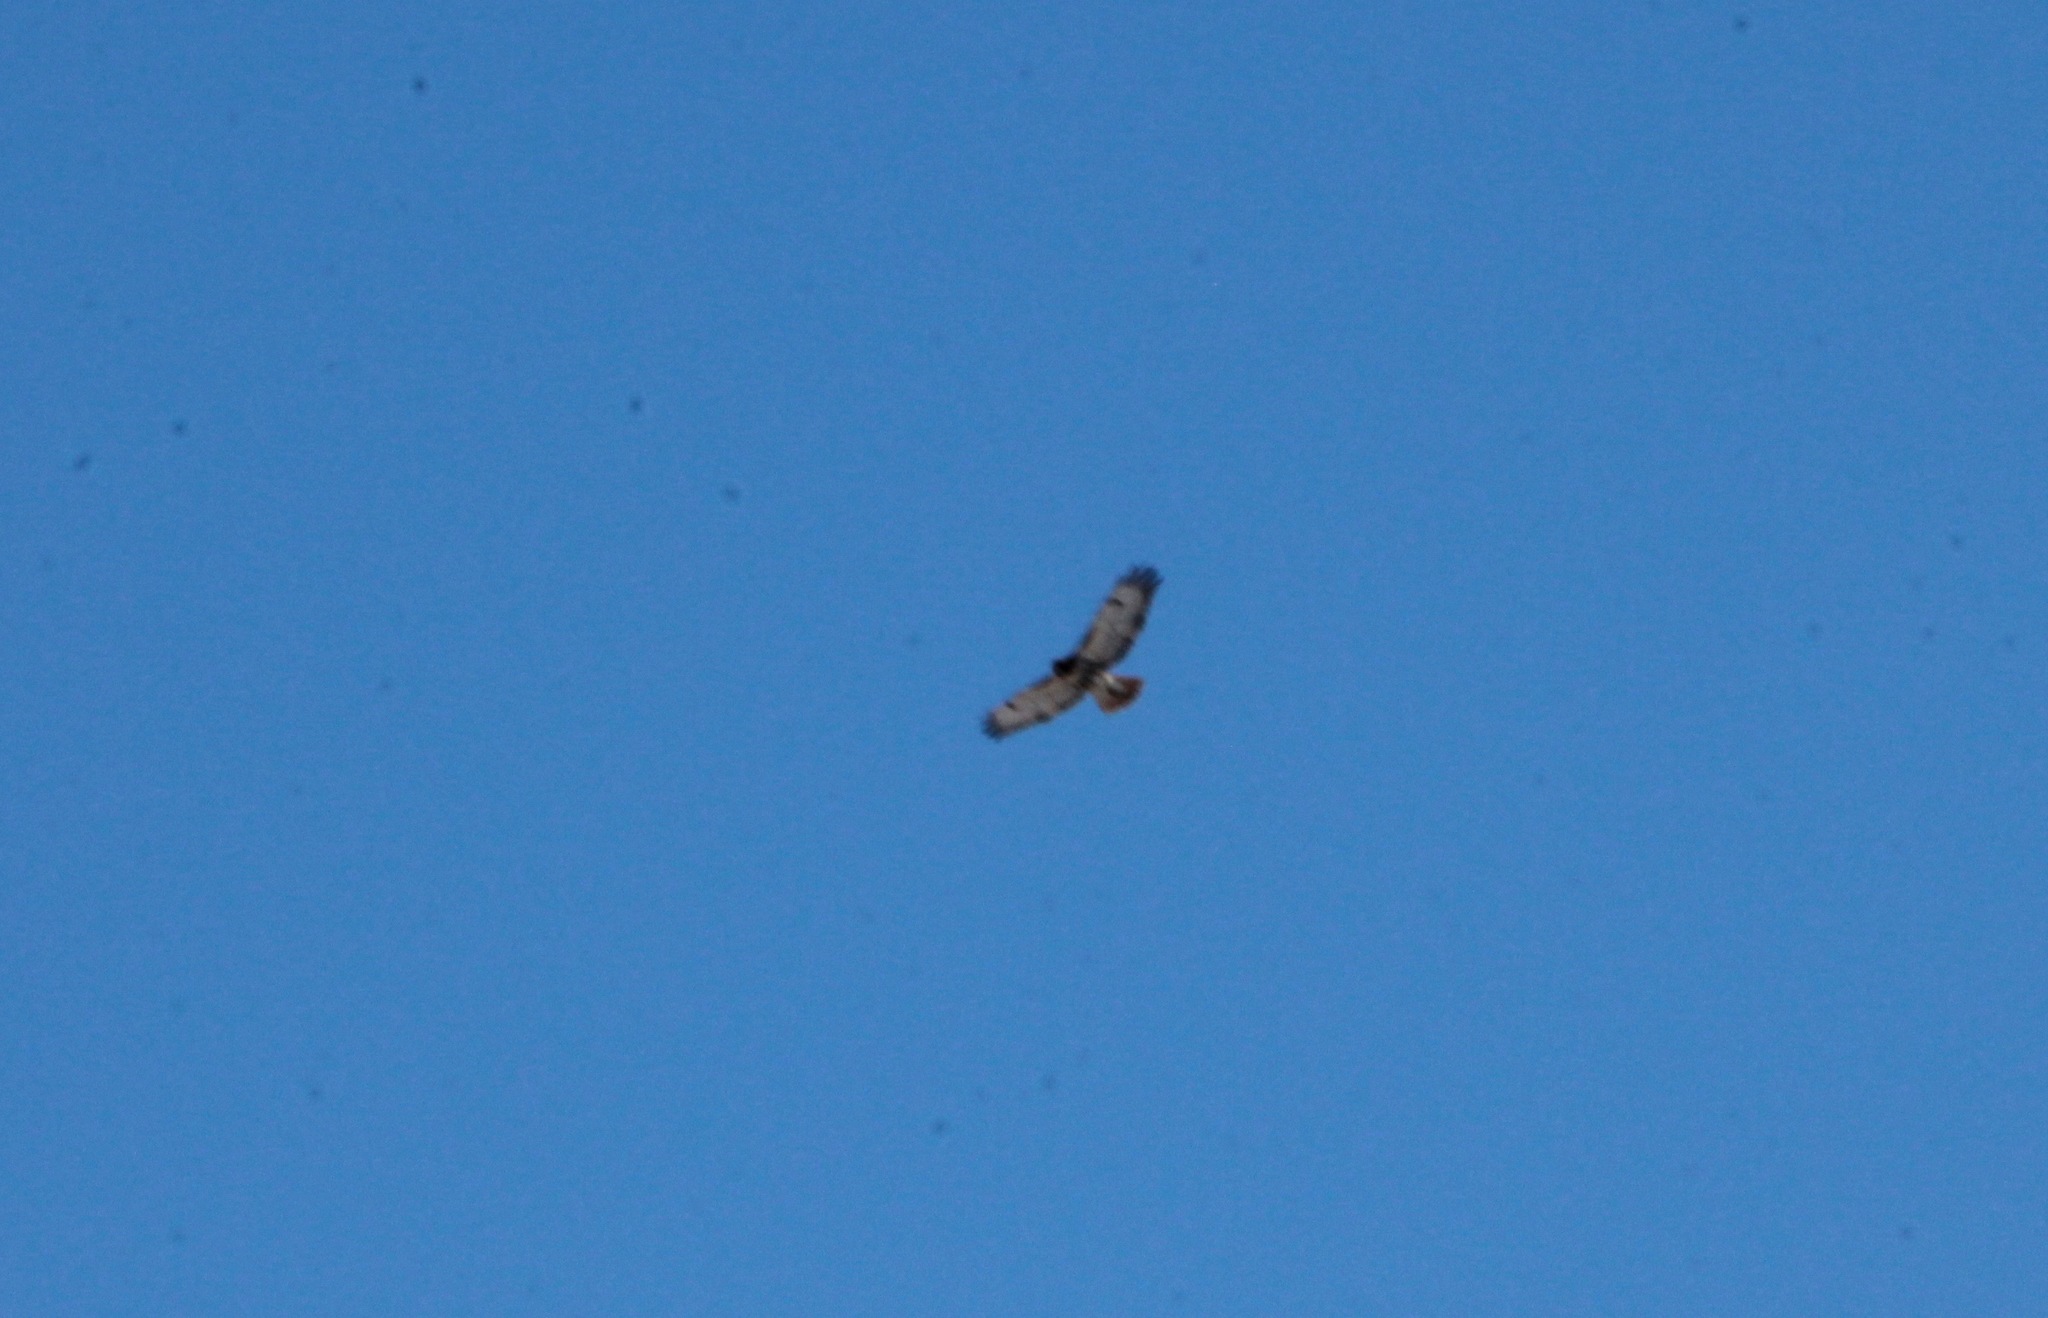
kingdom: Animalia
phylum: Chordata
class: Aves
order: Accipitriformes
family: Accipitridae
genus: Buteo
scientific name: Buteo jamaicensis
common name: Red-tailed hawk
